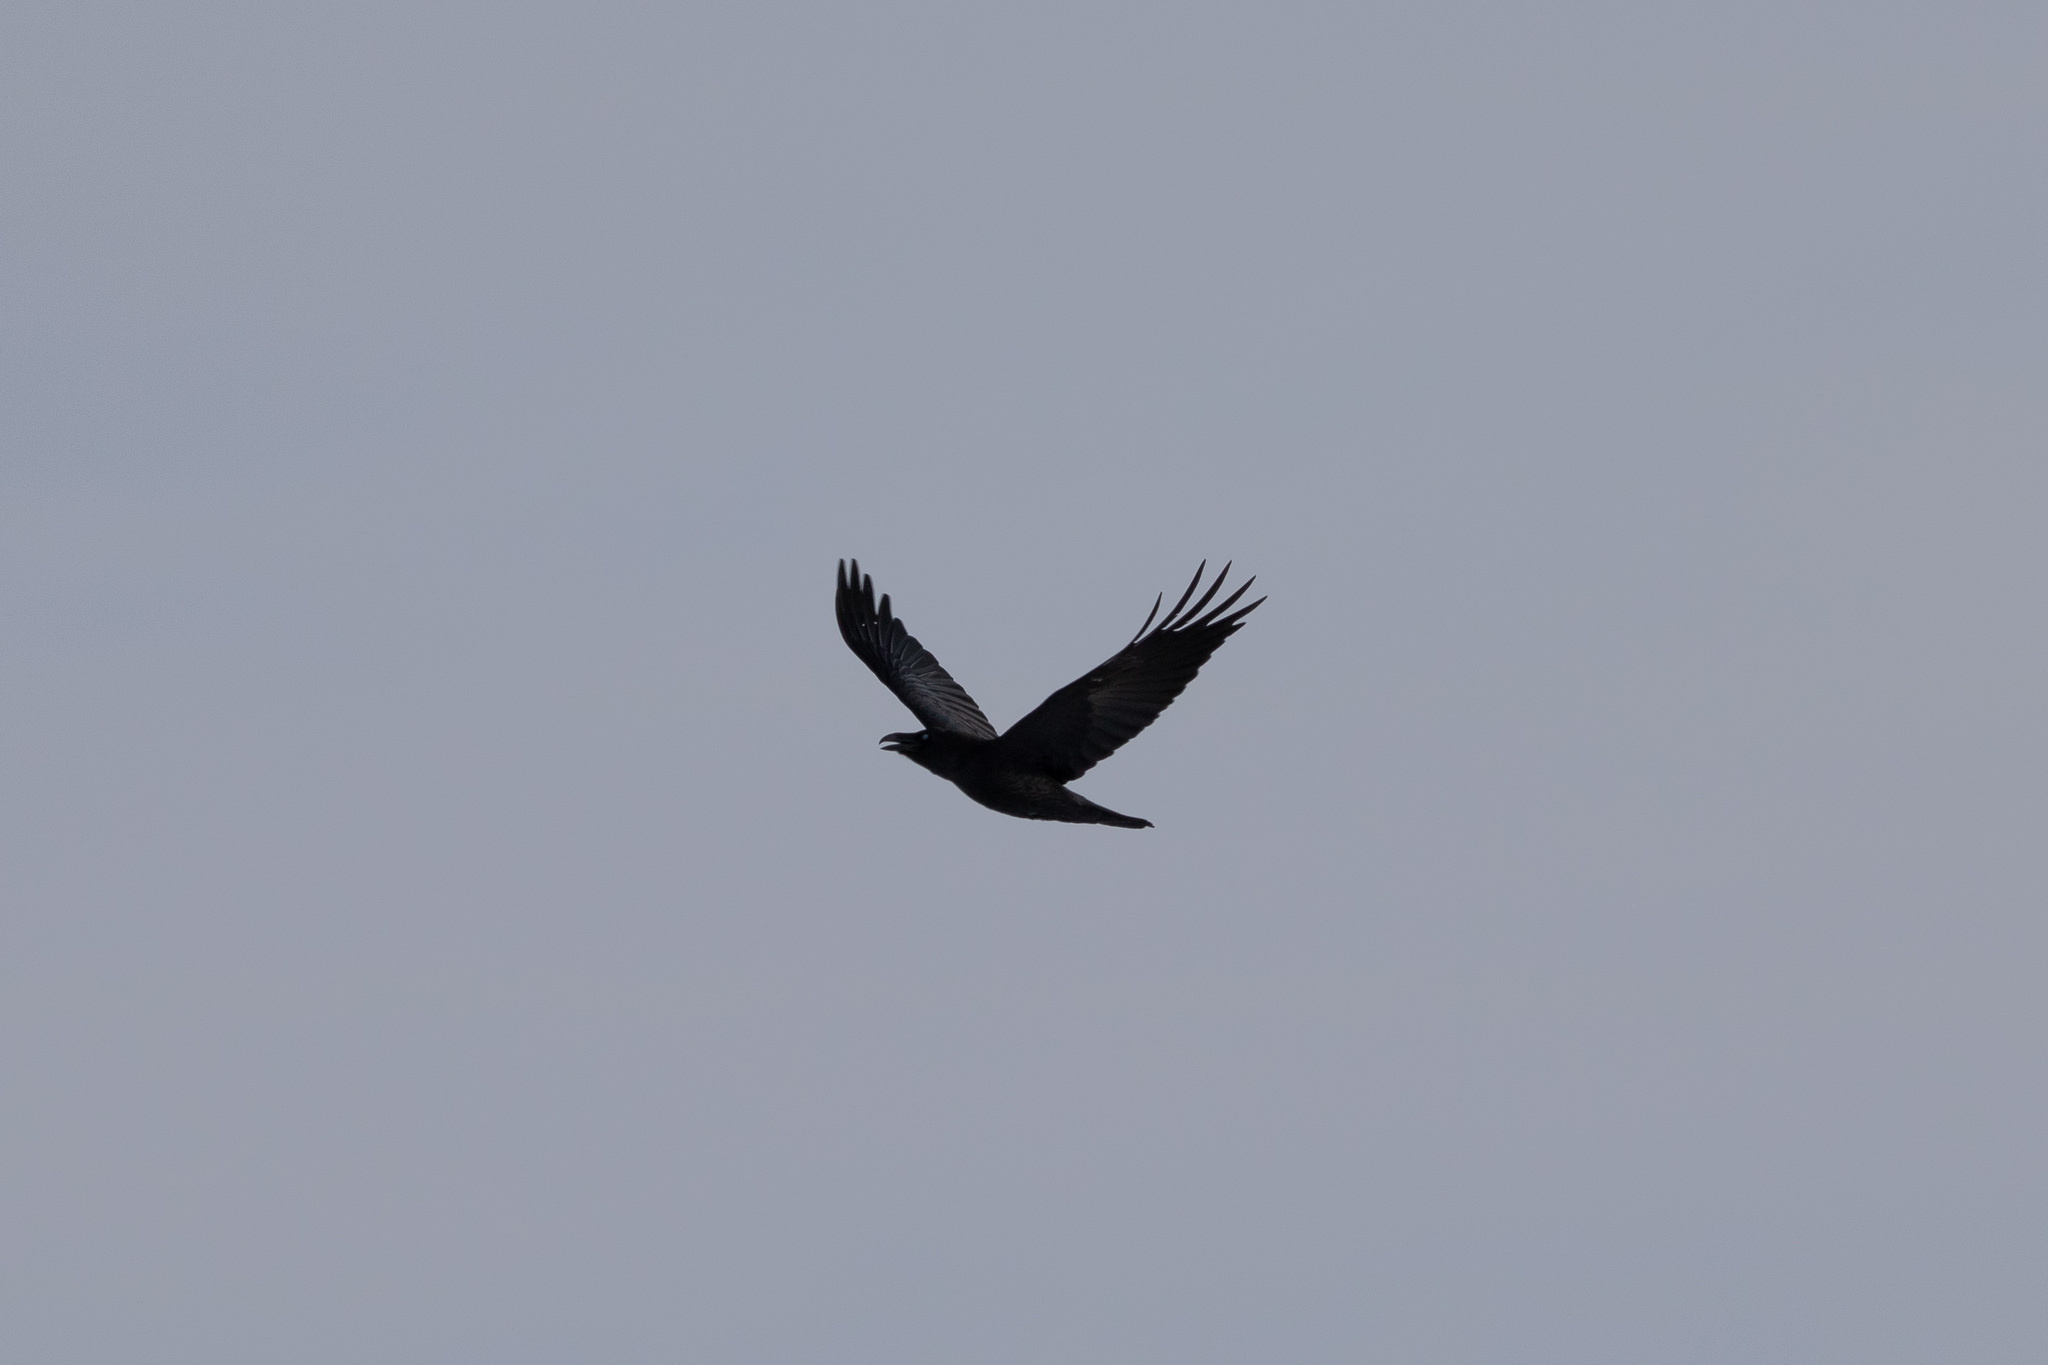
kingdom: Animalia
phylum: Chordata
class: Aves
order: Passeriformes
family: Corvidae
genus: Corvus
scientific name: Corvus corax
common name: Common raven
